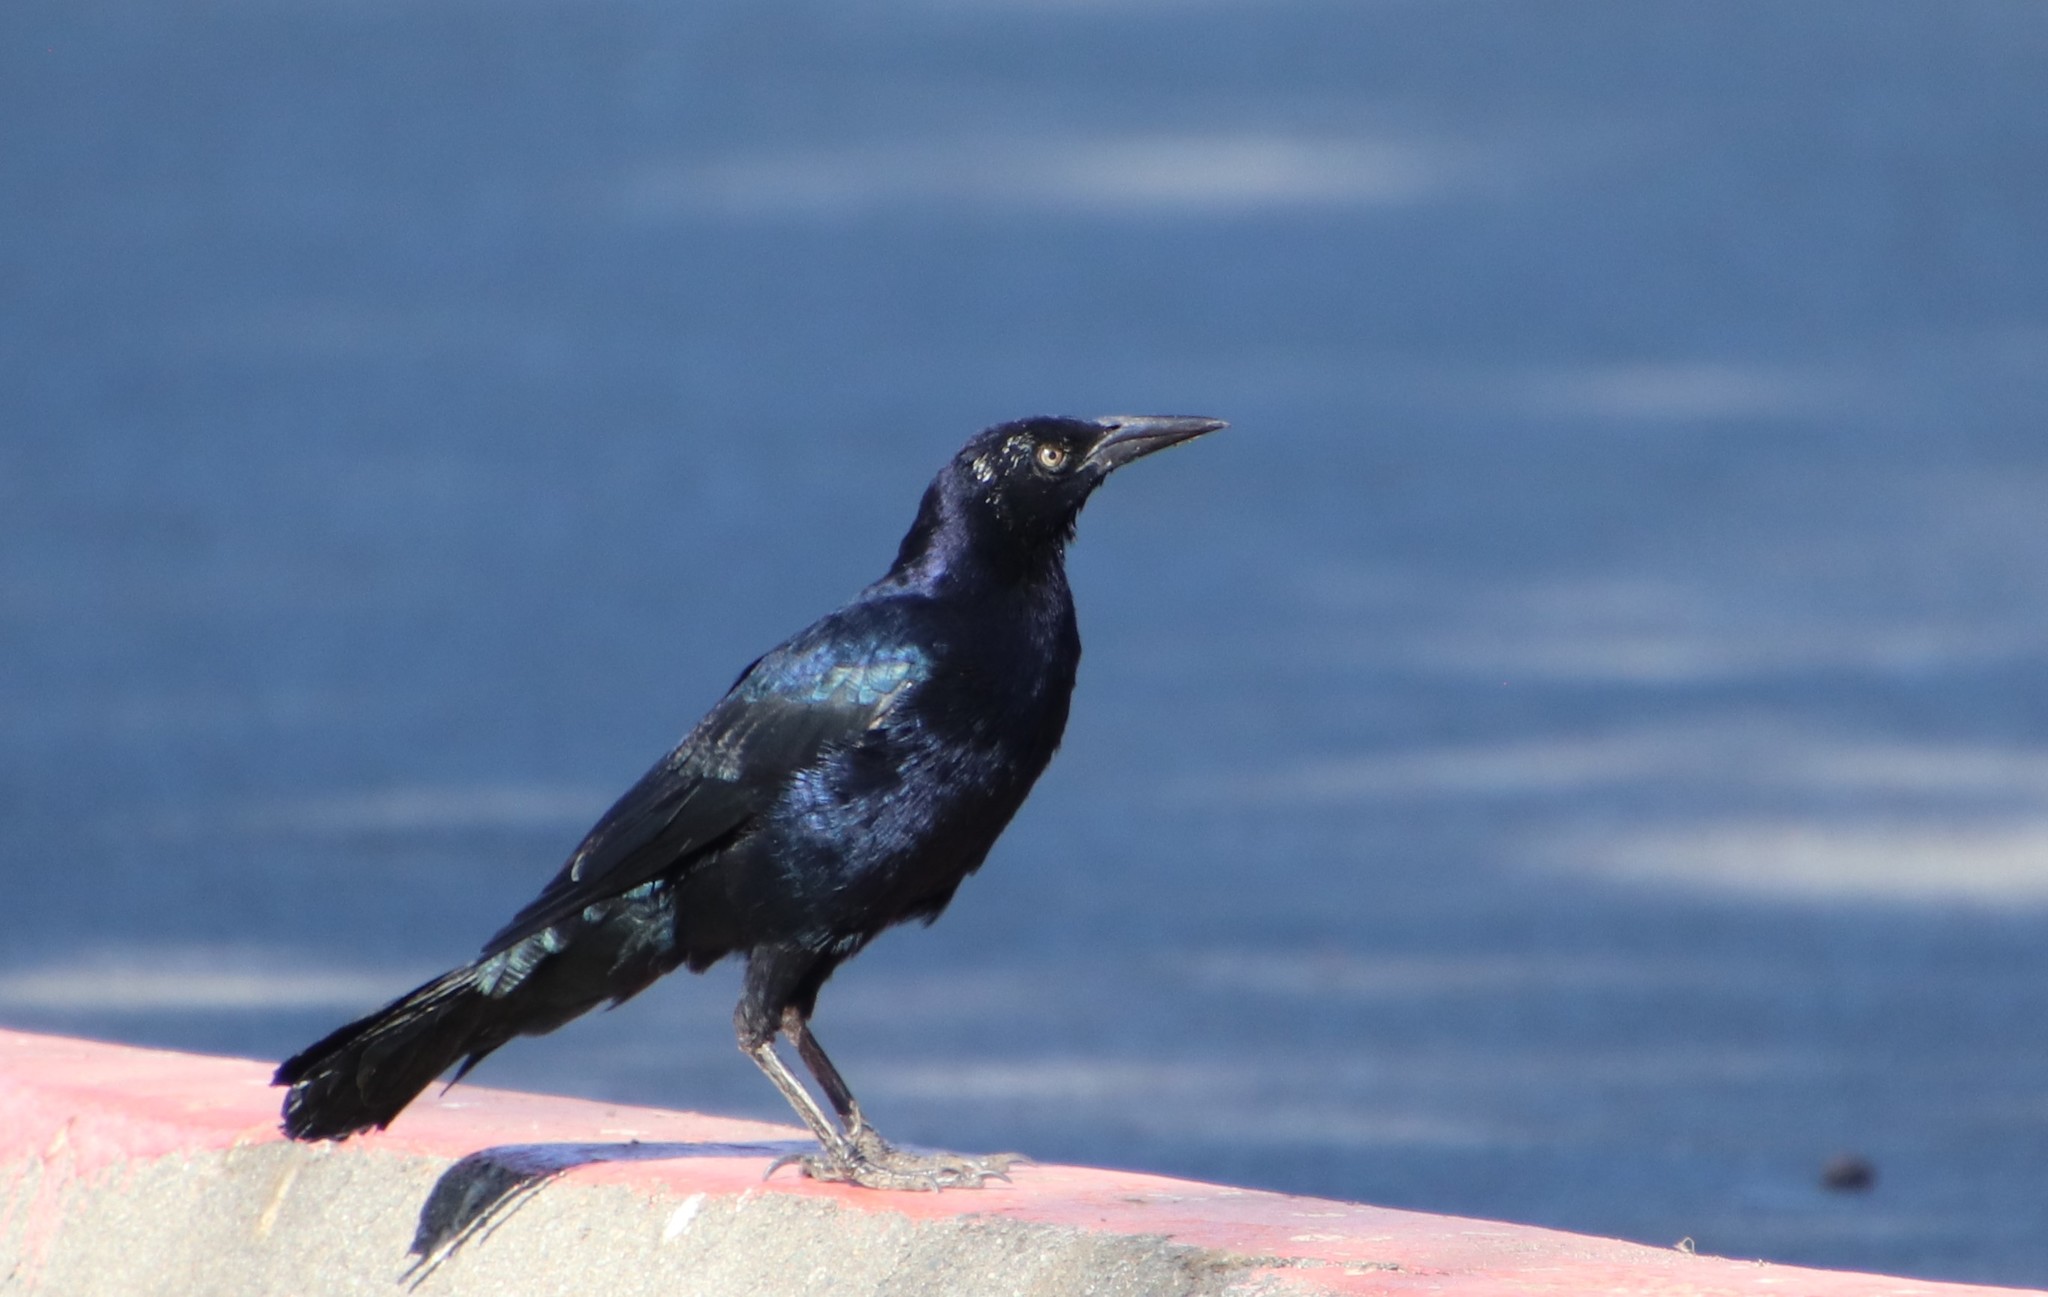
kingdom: Animalia
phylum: Chordata
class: Aves
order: Passeriformes
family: Icteridae
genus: Quiscalus
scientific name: Quiscalus mexicanus
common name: Great-tailed grackle
